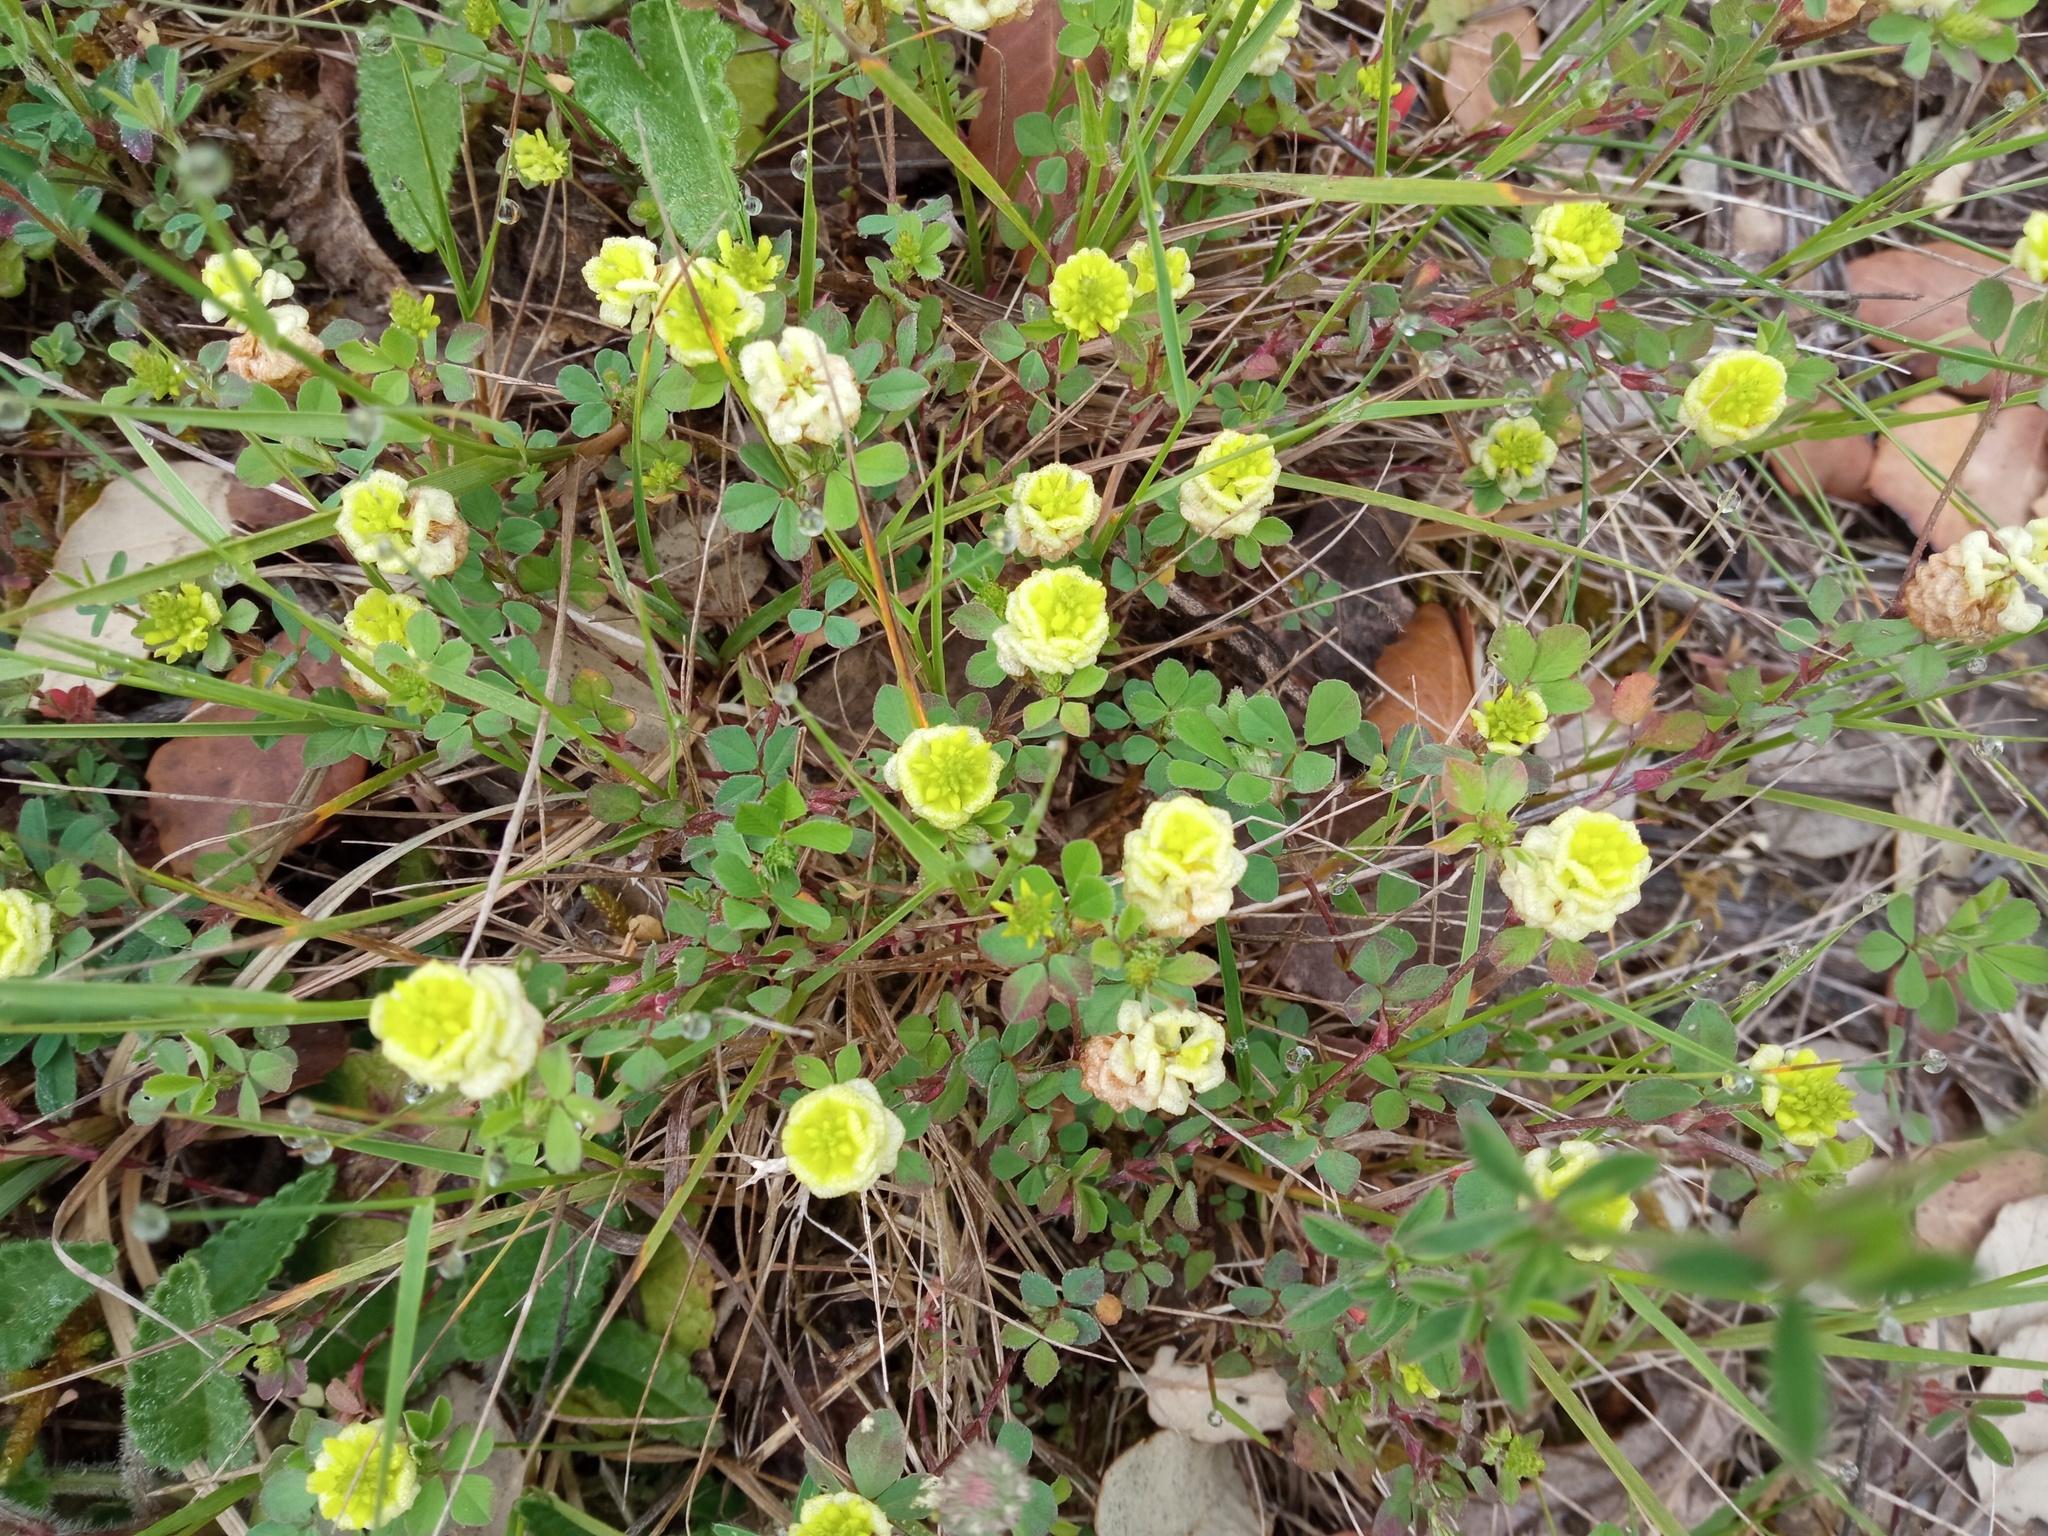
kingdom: Plantae
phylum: Tracheophyta
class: Magnoliopsida
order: Fabales
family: Fabaceae
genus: Trifolium
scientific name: Trifolium campestre
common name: Field clover
